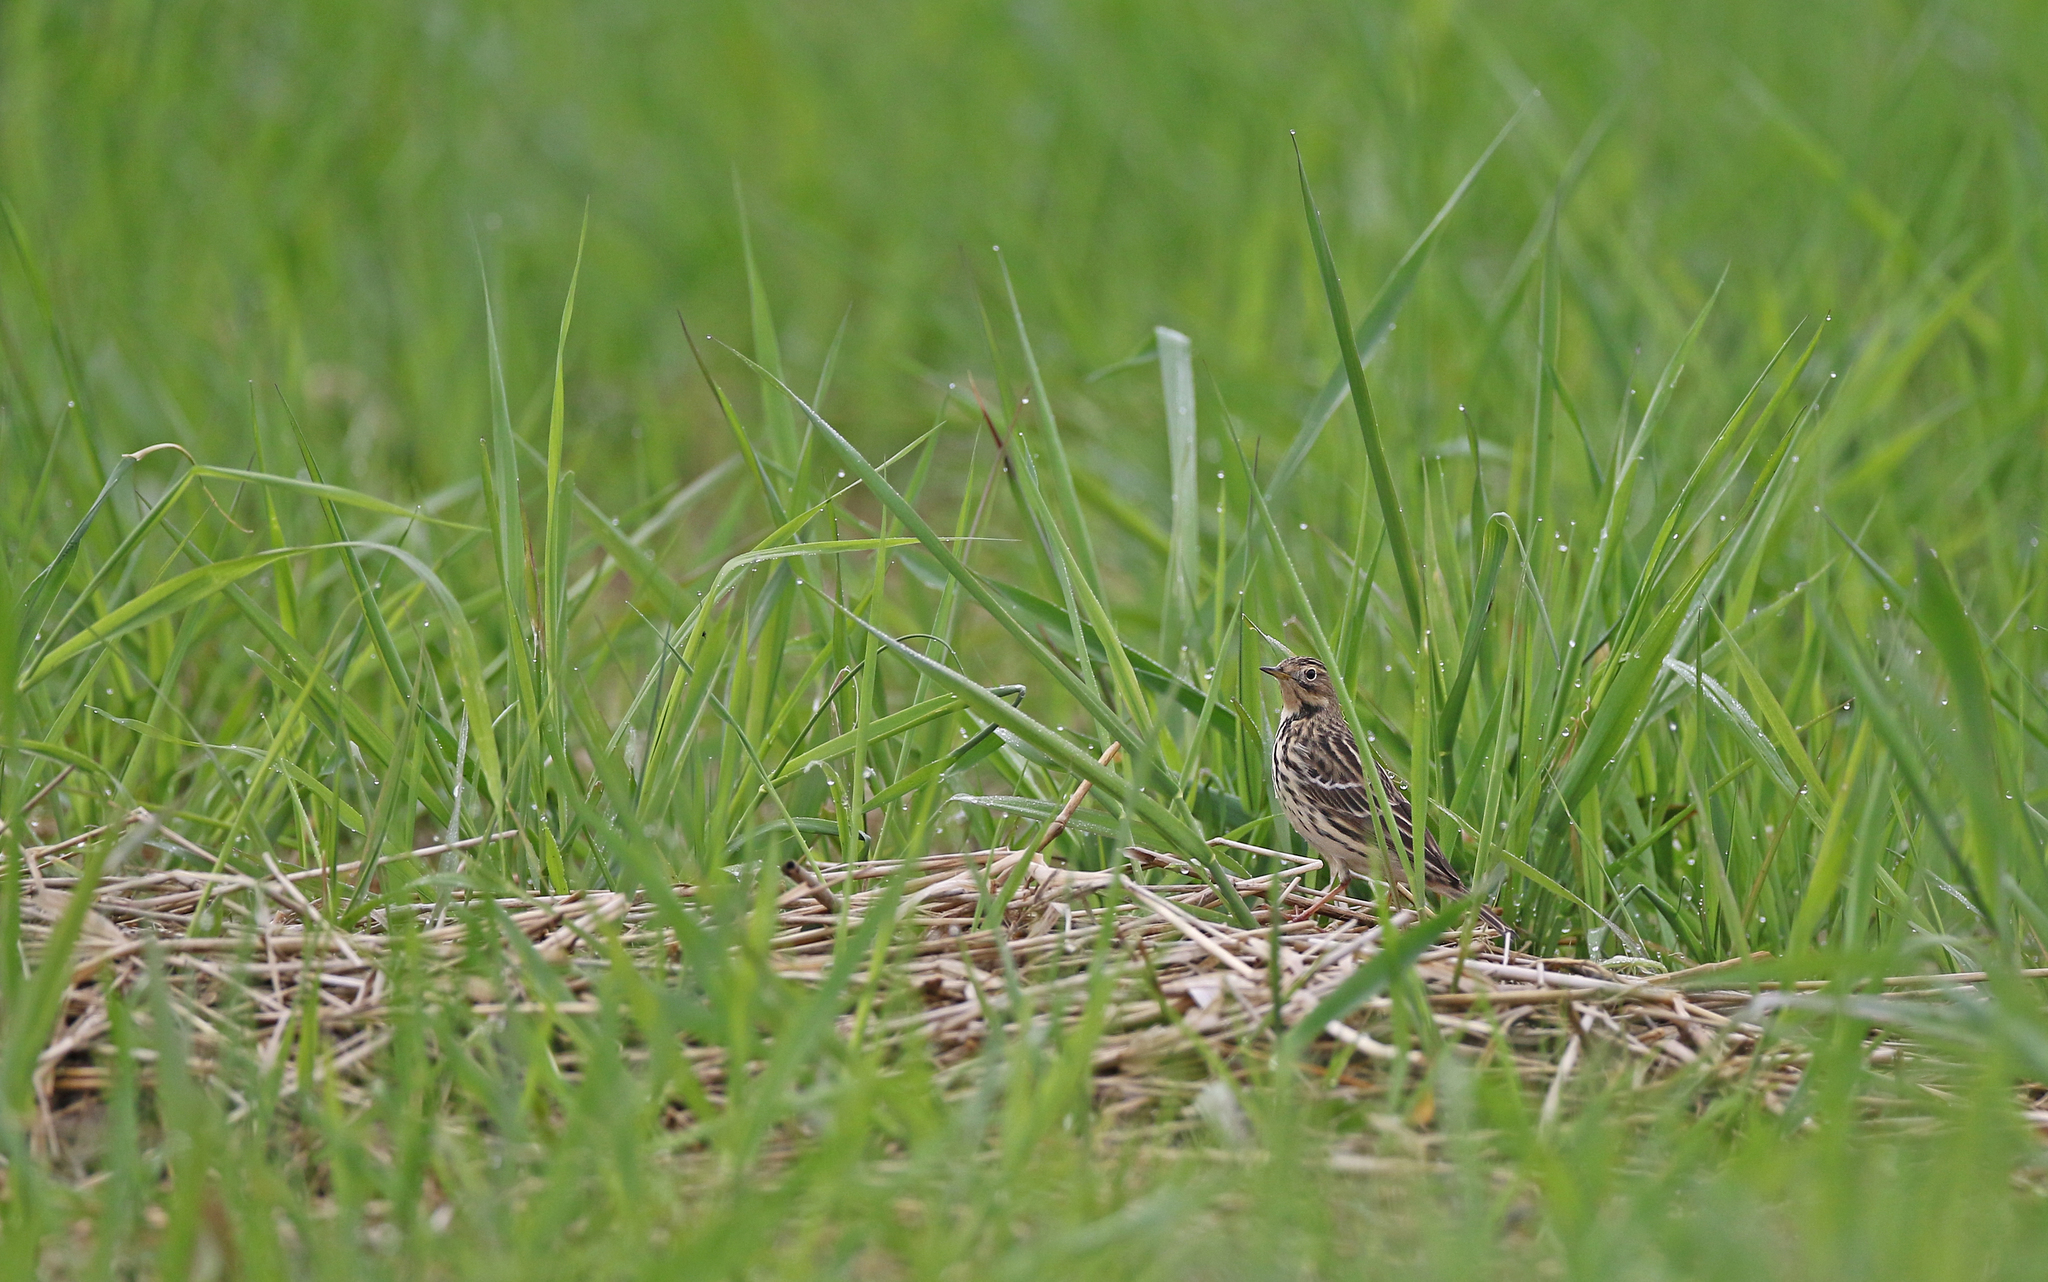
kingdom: Animalia
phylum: Chordata
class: Aves
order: Passeriformes
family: Motacillidae
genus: Anthus
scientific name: Anthus cervinus
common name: Red-throated pipit
